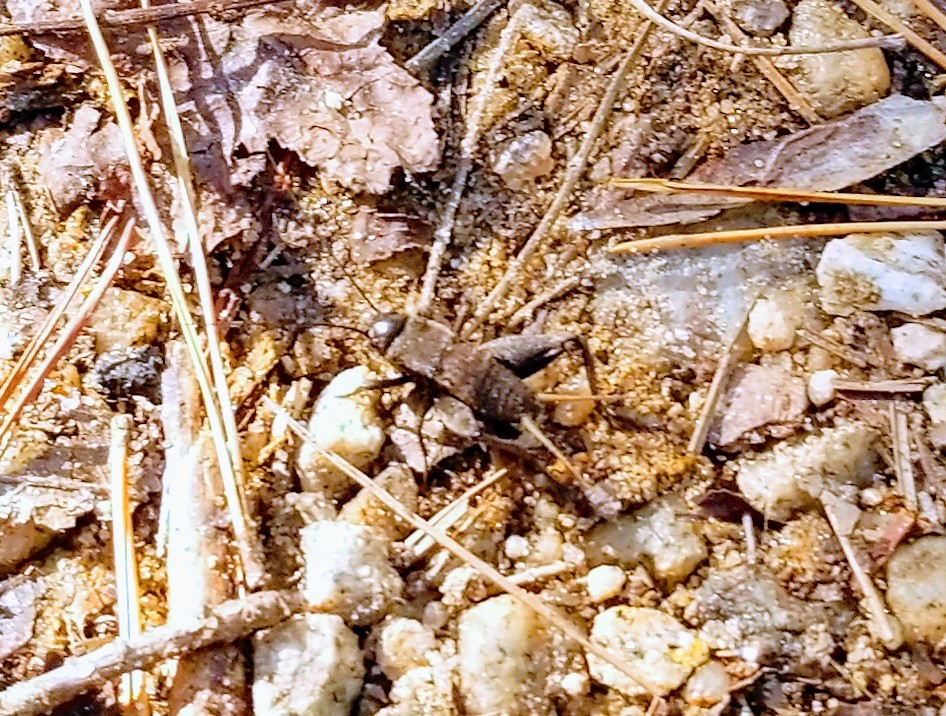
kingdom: Animalia
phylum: Arthropoda
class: Insecta
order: Orthoptera
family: Gryllidae
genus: Gryllus
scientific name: Gryllus pennsylvanicus
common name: Fall field cricket
